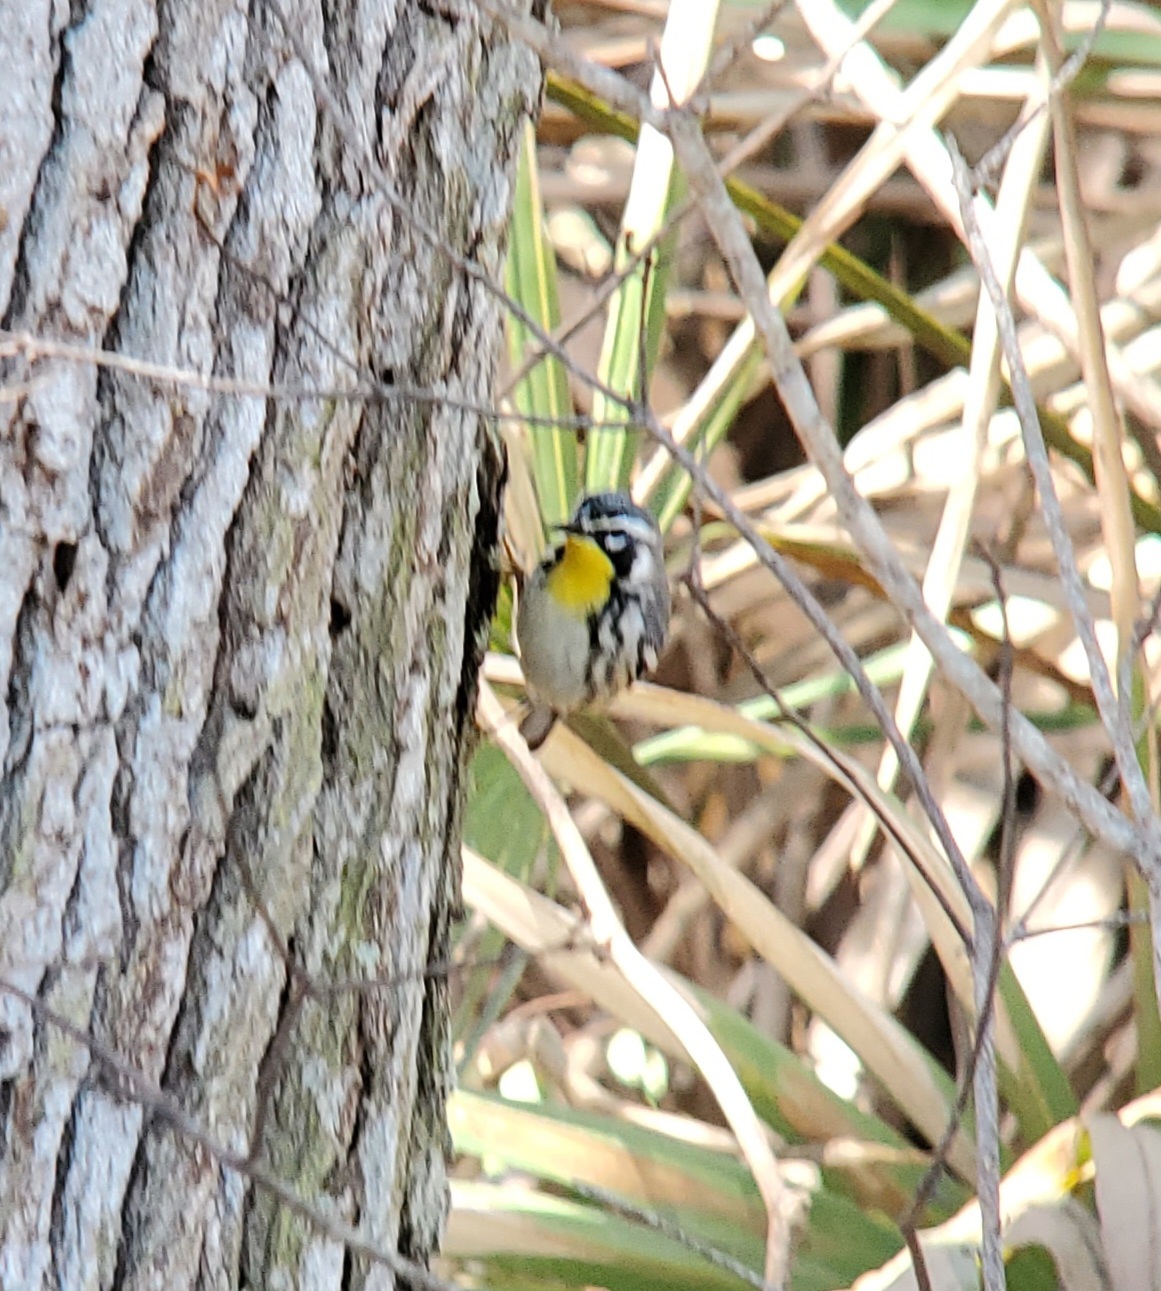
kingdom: Animalia
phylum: Chordata
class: Aves
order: Passeriformes
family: Parulidae
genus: Setophaga
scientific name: Setophaga dominica
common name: Yellow-throated warbler
